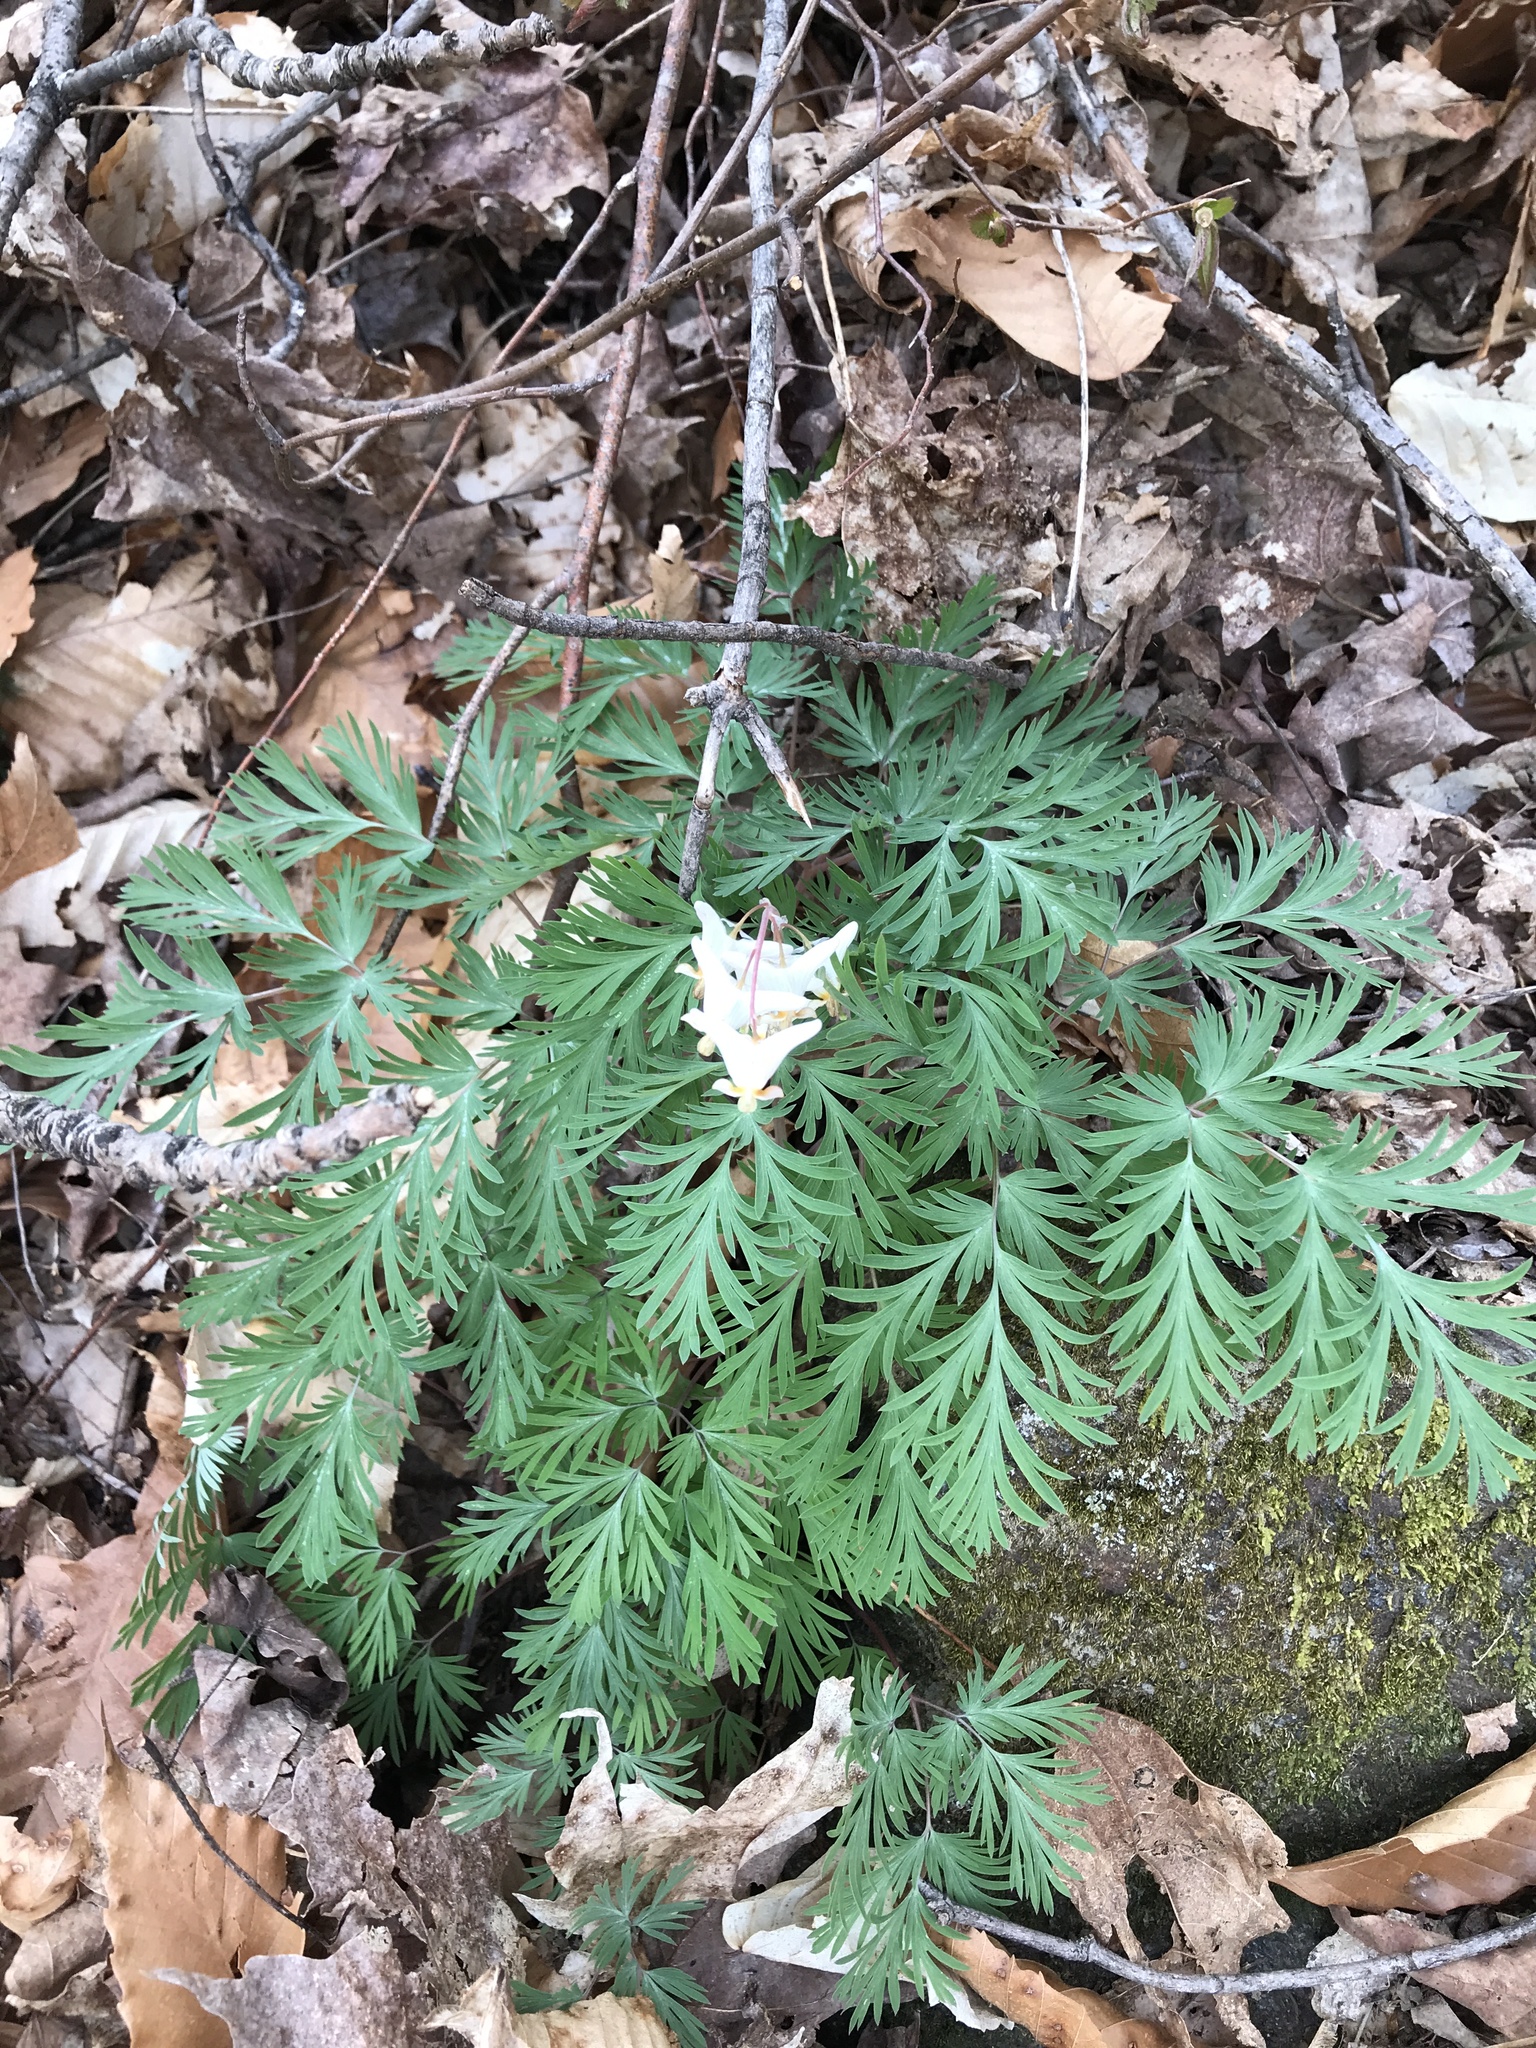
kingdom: Plantae
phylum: Tracheophyta
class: Magnoliopsida
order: Ranunculales
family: Papaveraceae
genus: Dicentra
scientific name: Dicentra cucullaria
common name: Dutchman's breeches
